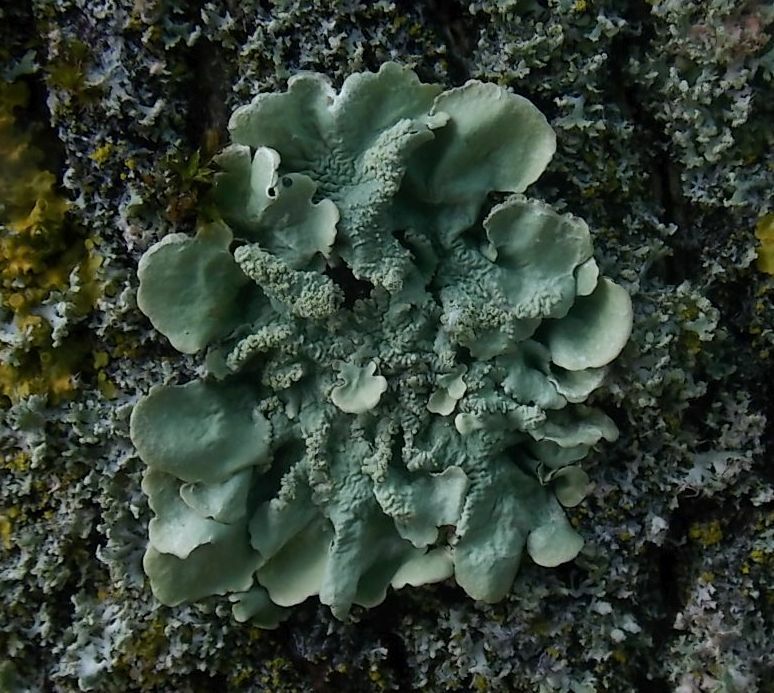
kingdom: Fungi
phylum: Ascomycota
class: Lecanoromycetes
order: Lecanorales
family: Parmeliaceae
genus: Flavoparmelia
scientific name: Flavoparmelia caperata
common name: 40-mile per hour lichen
